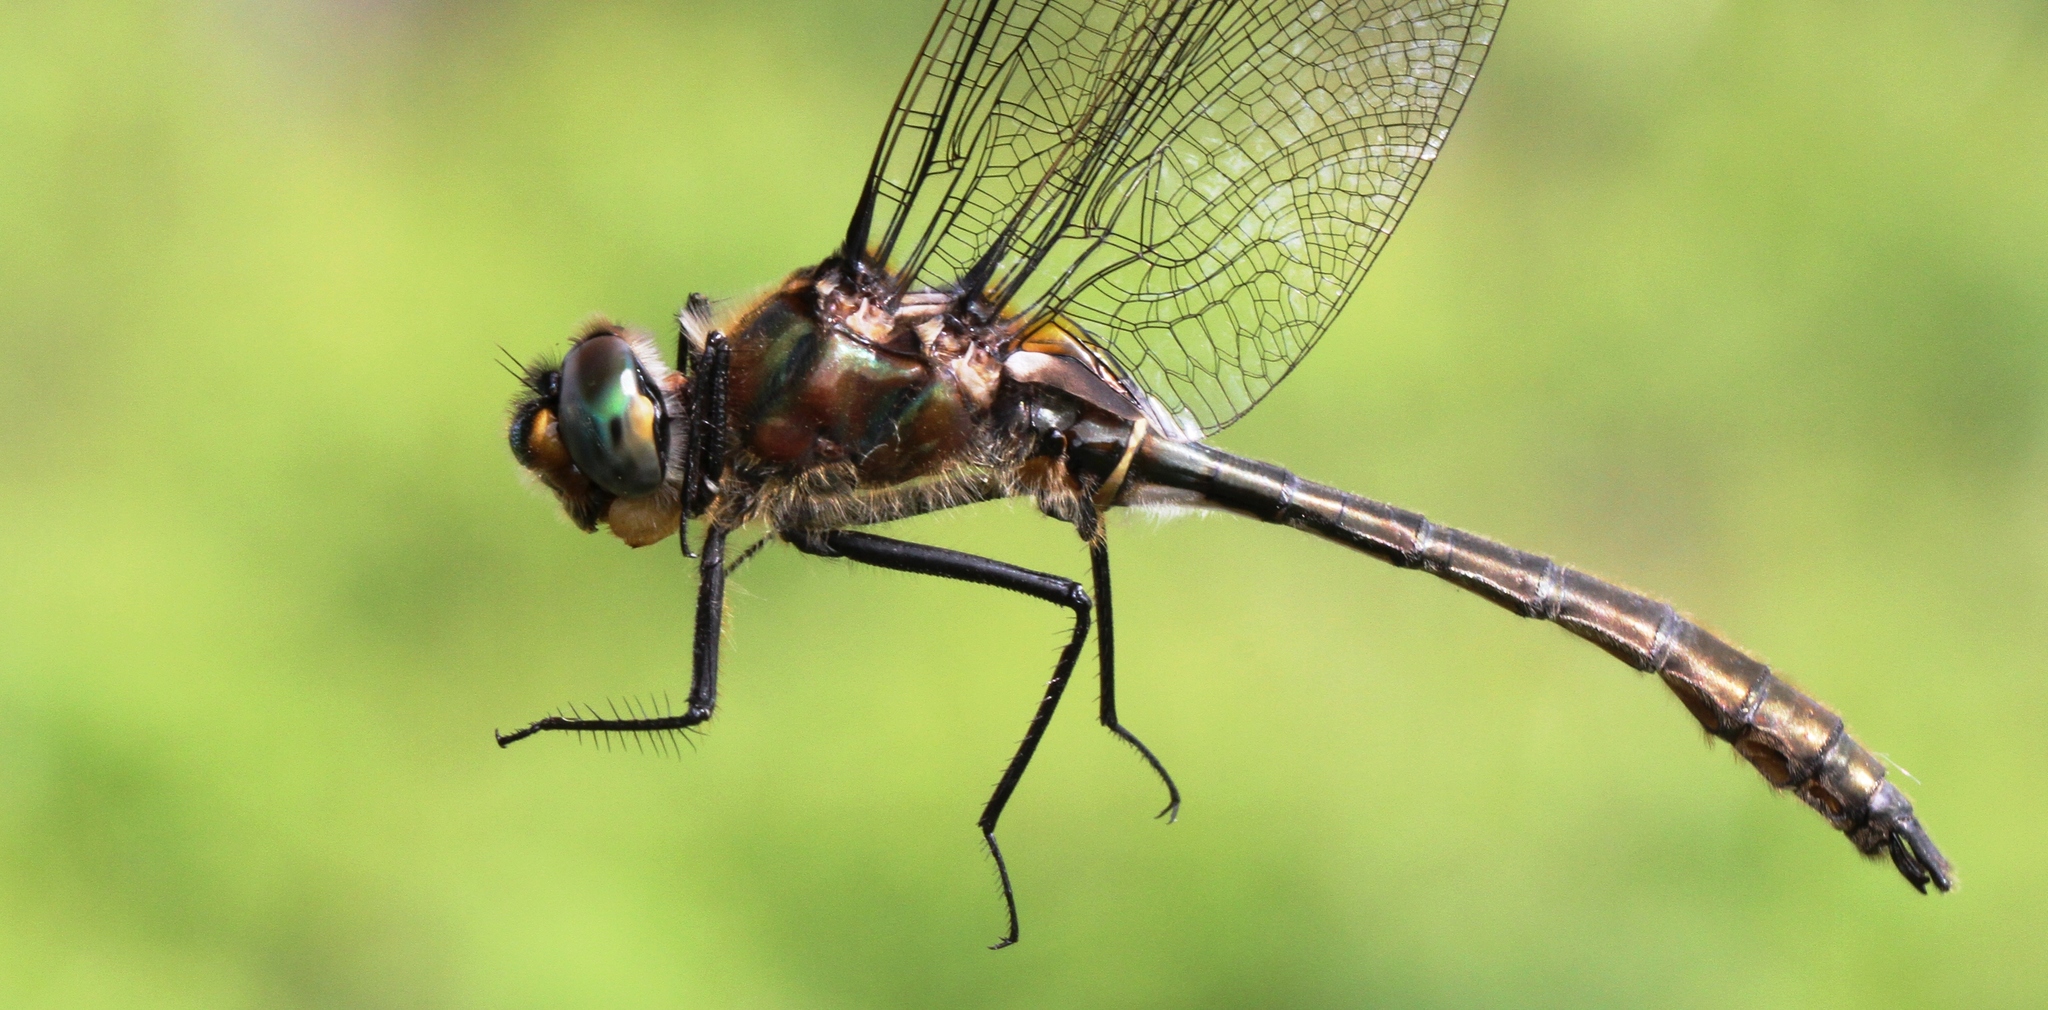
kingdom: Animalia
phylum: Arthropoda
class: Insecta
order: Odonata
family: Corduliidae
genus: Cordulia
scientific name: Cordulia shurtleffii
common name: American emerald
